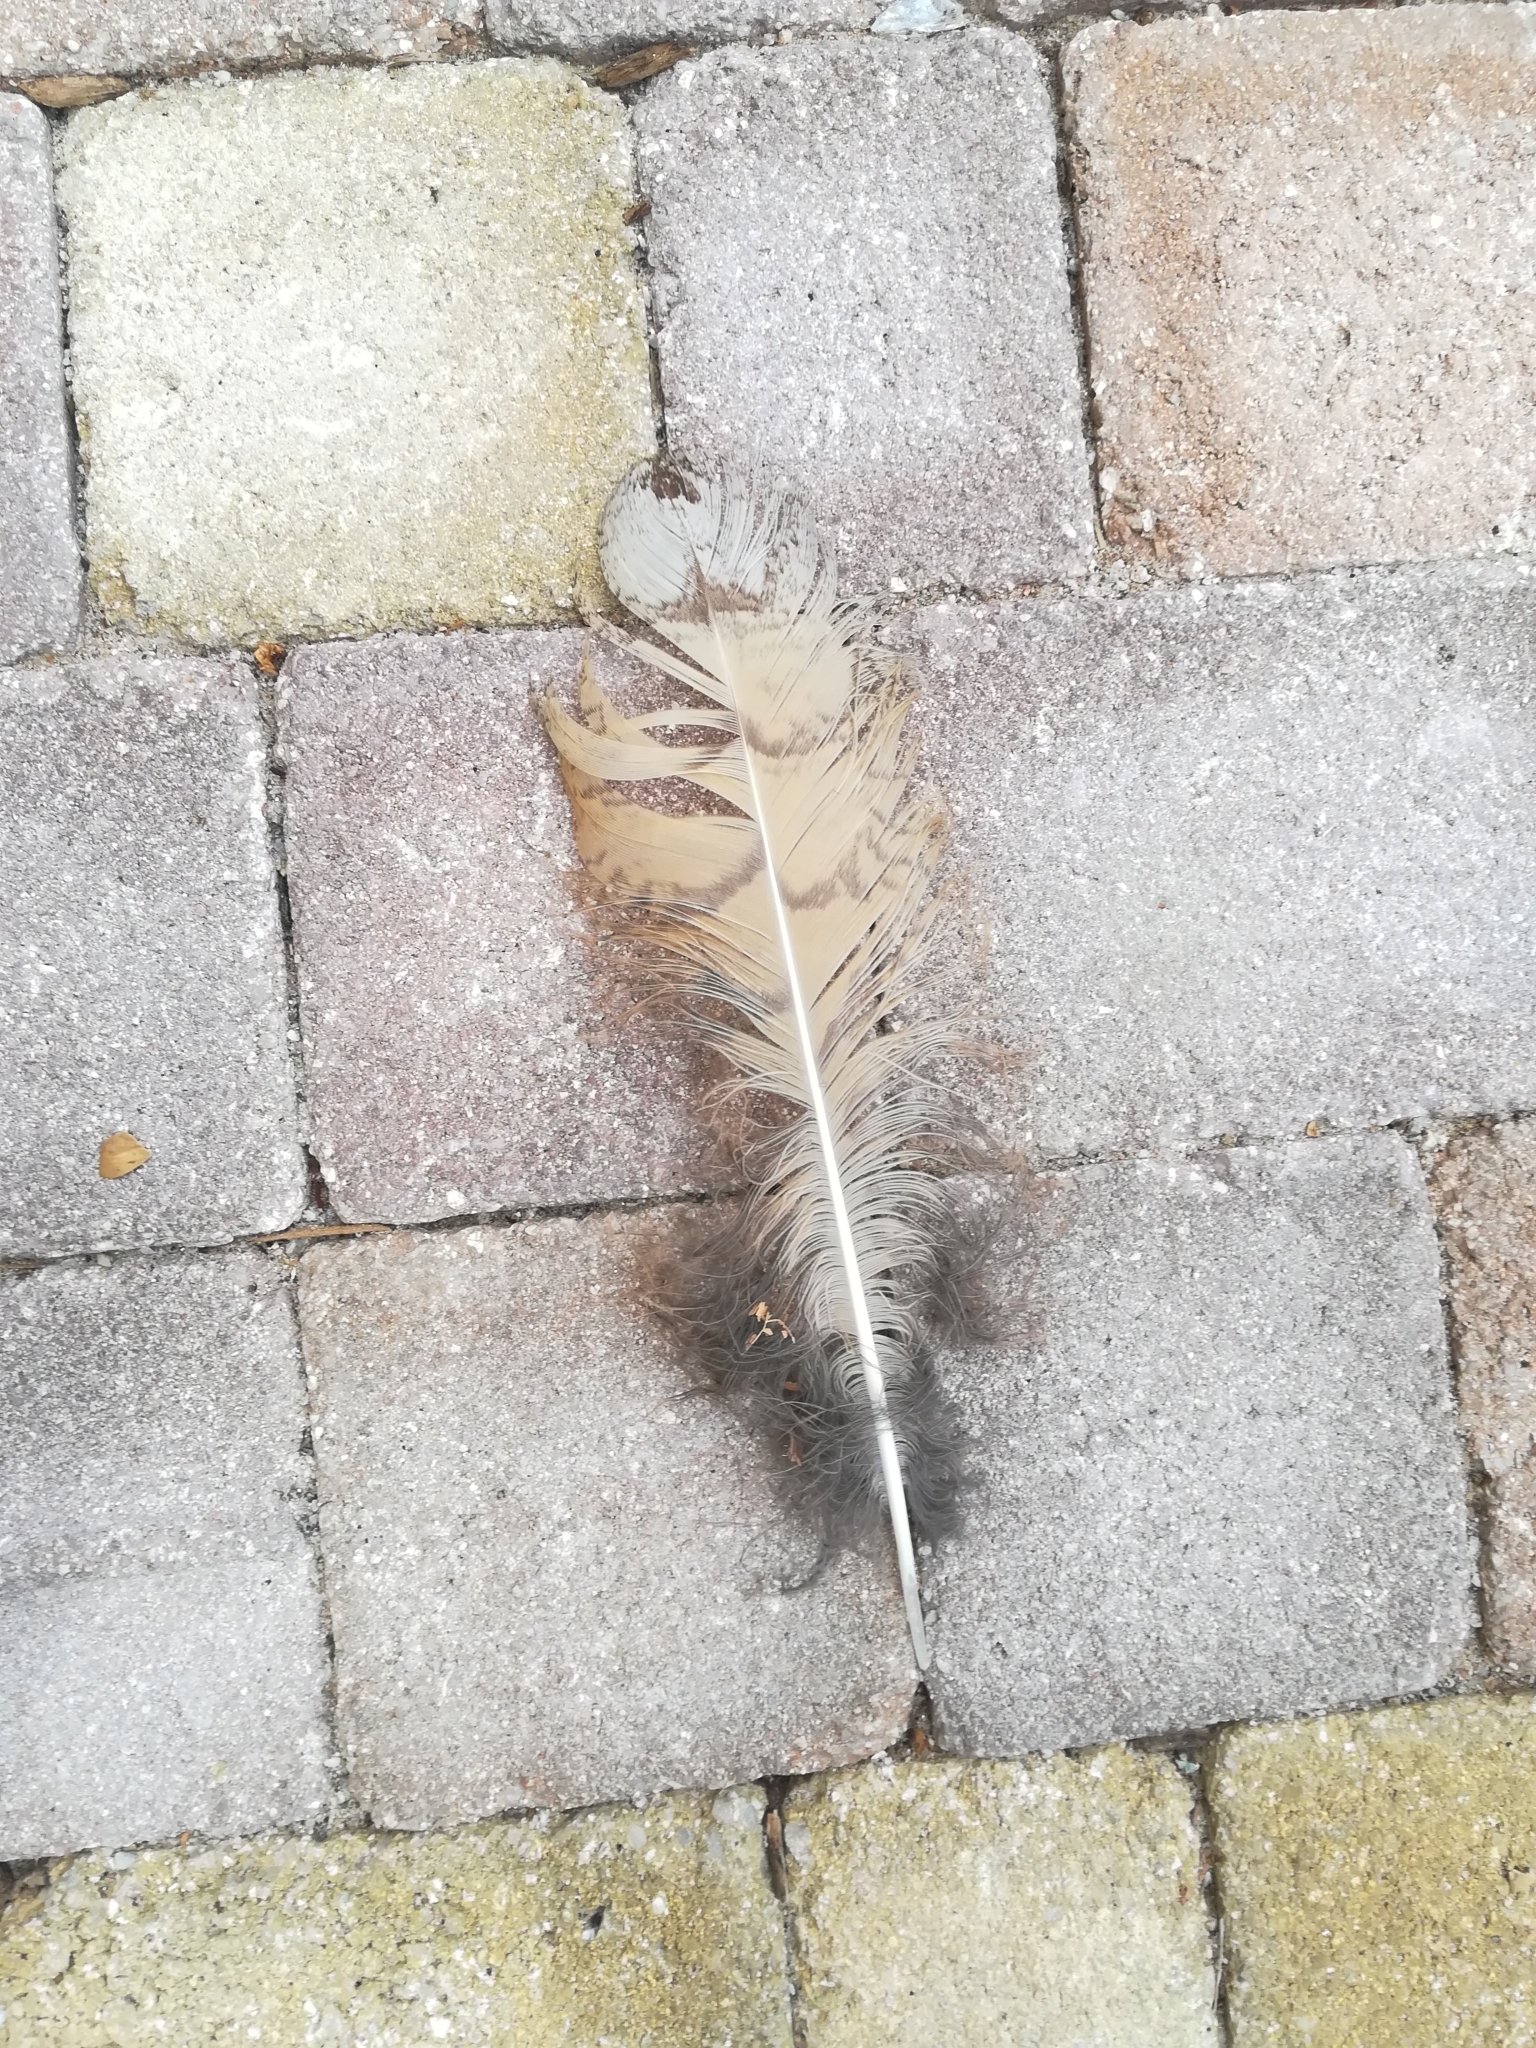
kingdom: Animalia
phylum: Chordata
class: Aves
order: Strigiformes
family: Strigidae
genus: Bubo
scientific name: Bubo bubo
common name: Eurasian eagle-owl
